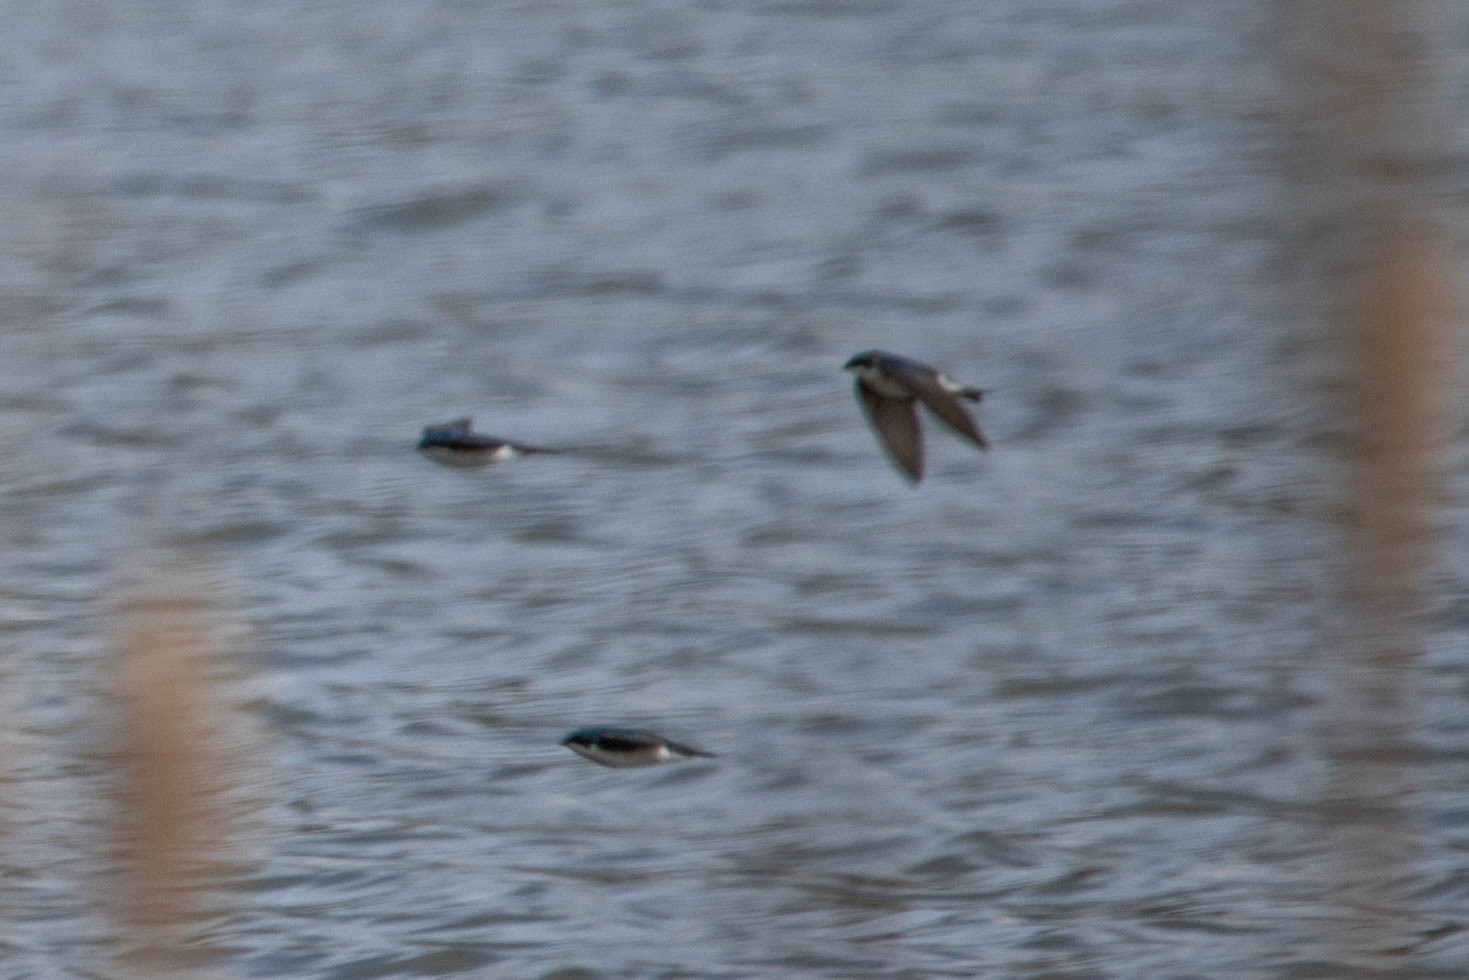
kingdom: Animalia
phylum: Chordata
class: Aves
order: Passeriformes
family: Hirundinidae
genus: Tachycineta
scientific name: Tachycineta bicolor
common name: Tree swallow
